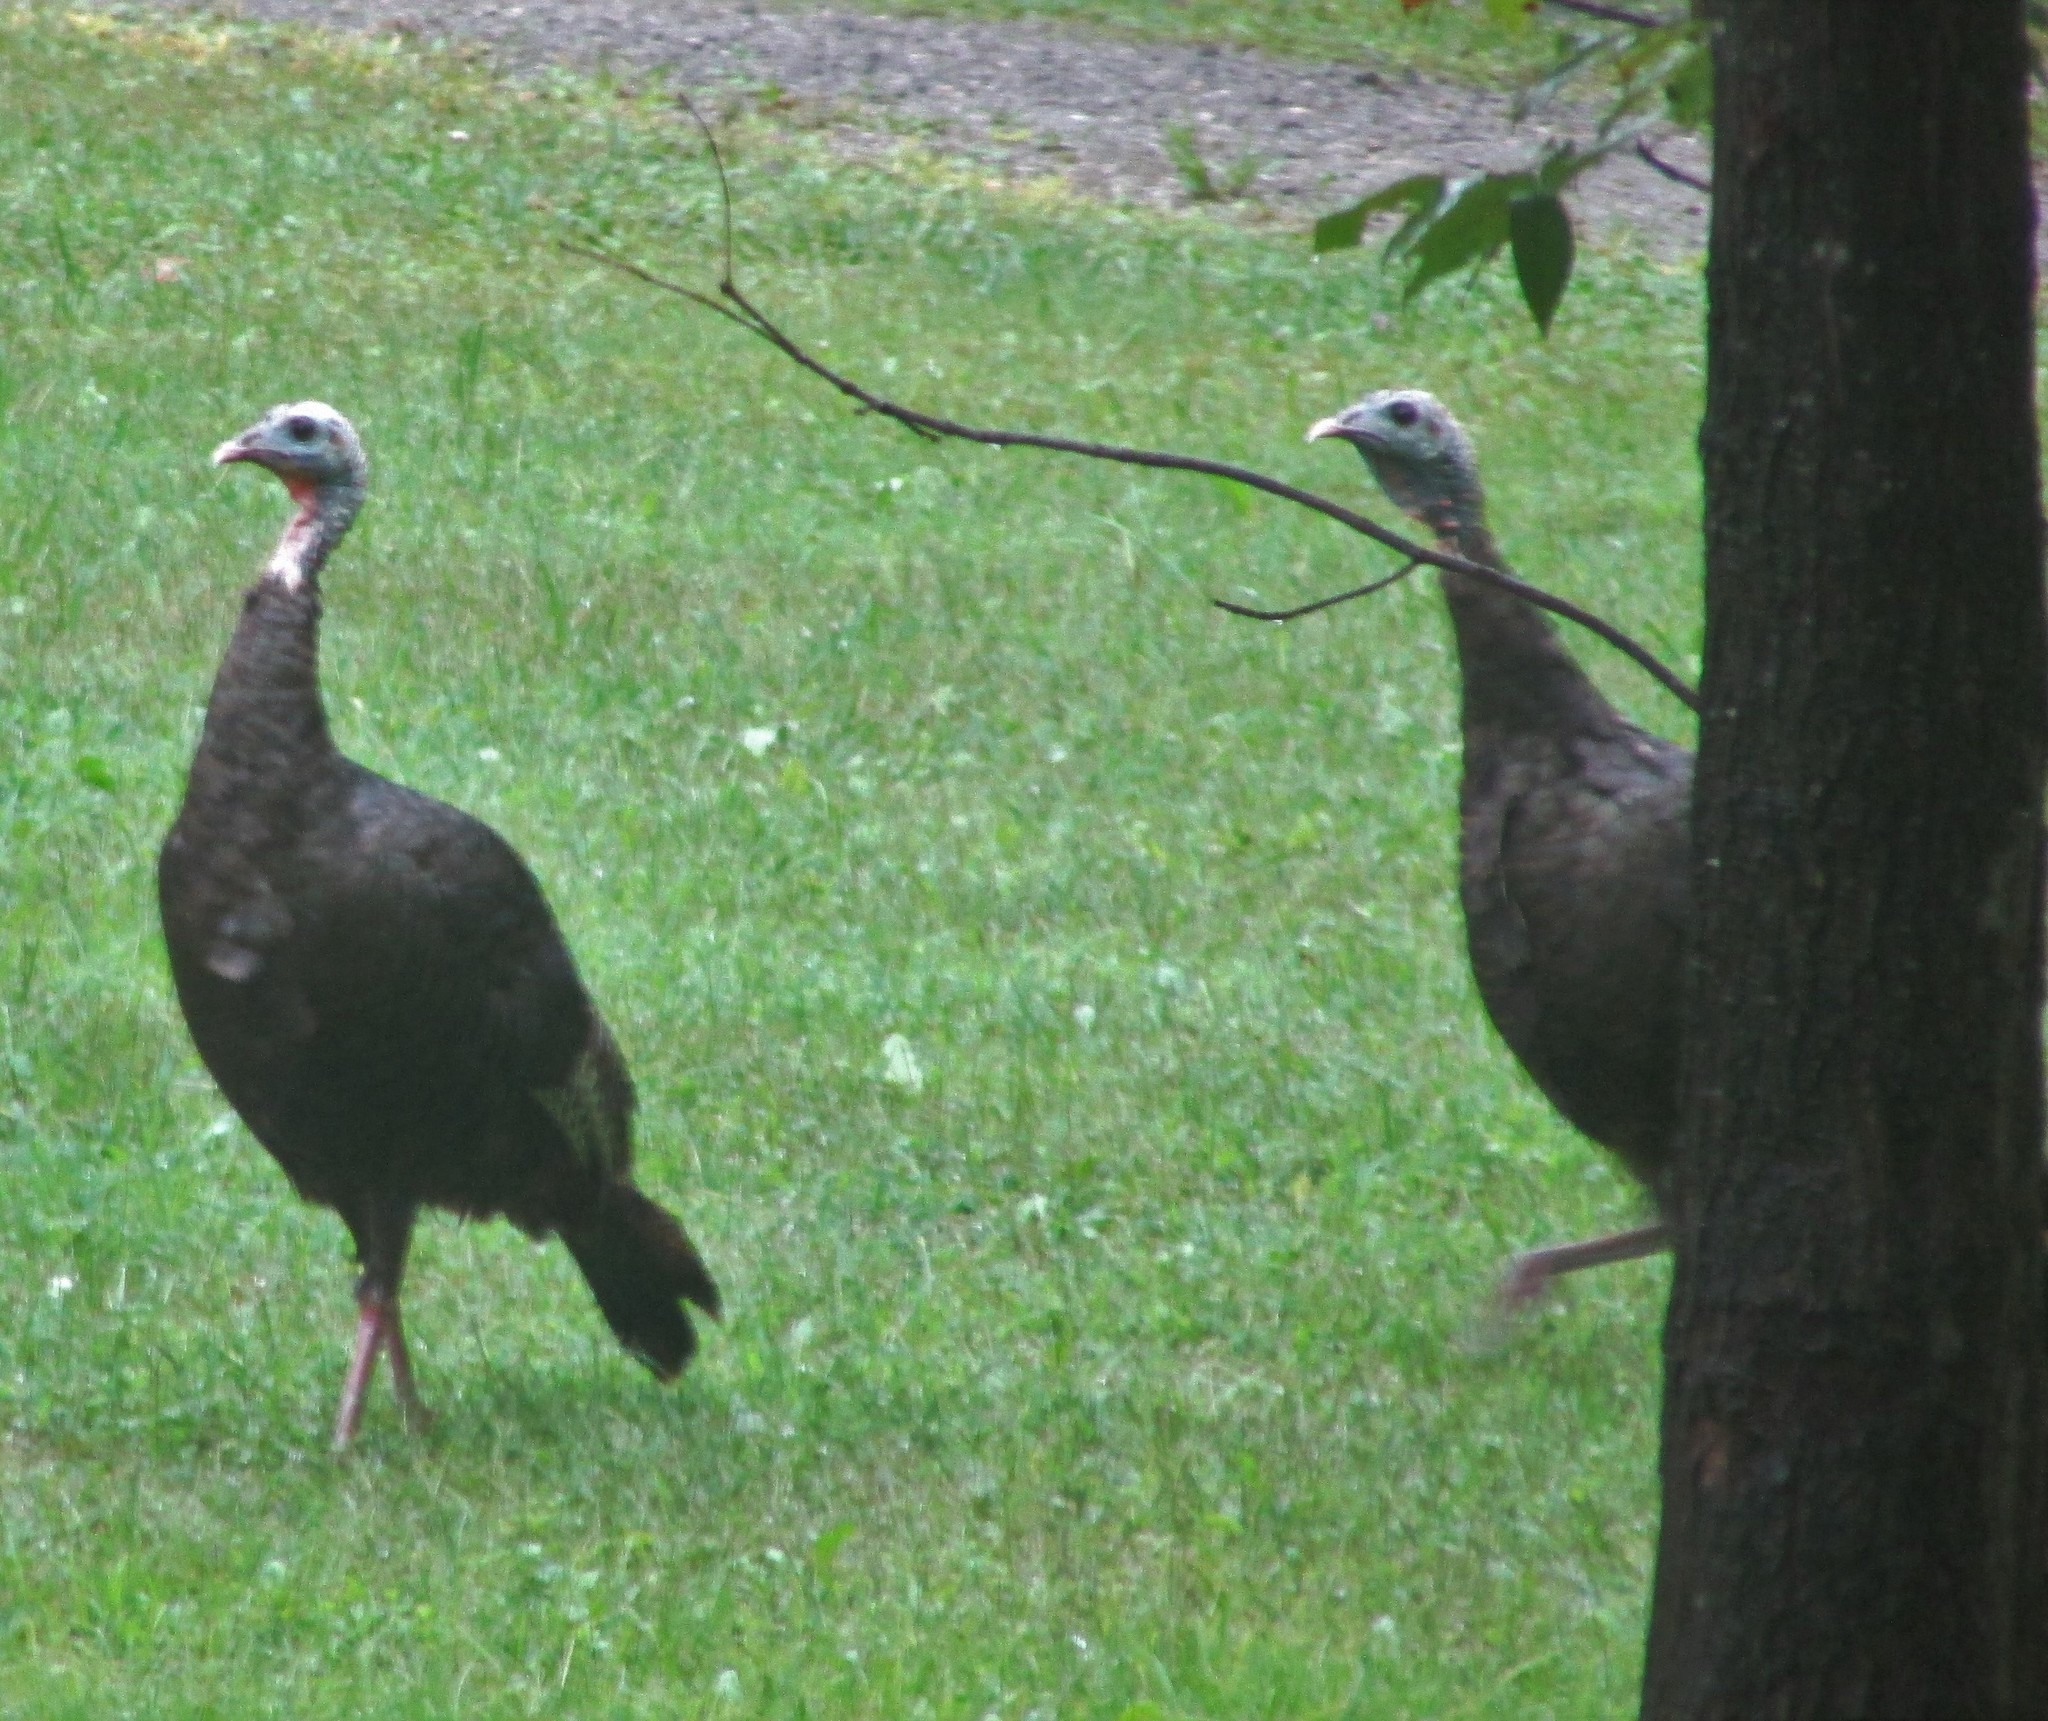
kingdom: Animalia
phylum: Chordata
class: Aves
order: Galliformes
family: Phasianidae
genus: Meleagris
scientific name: Meleagris gallopavo
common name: Wild turkey
